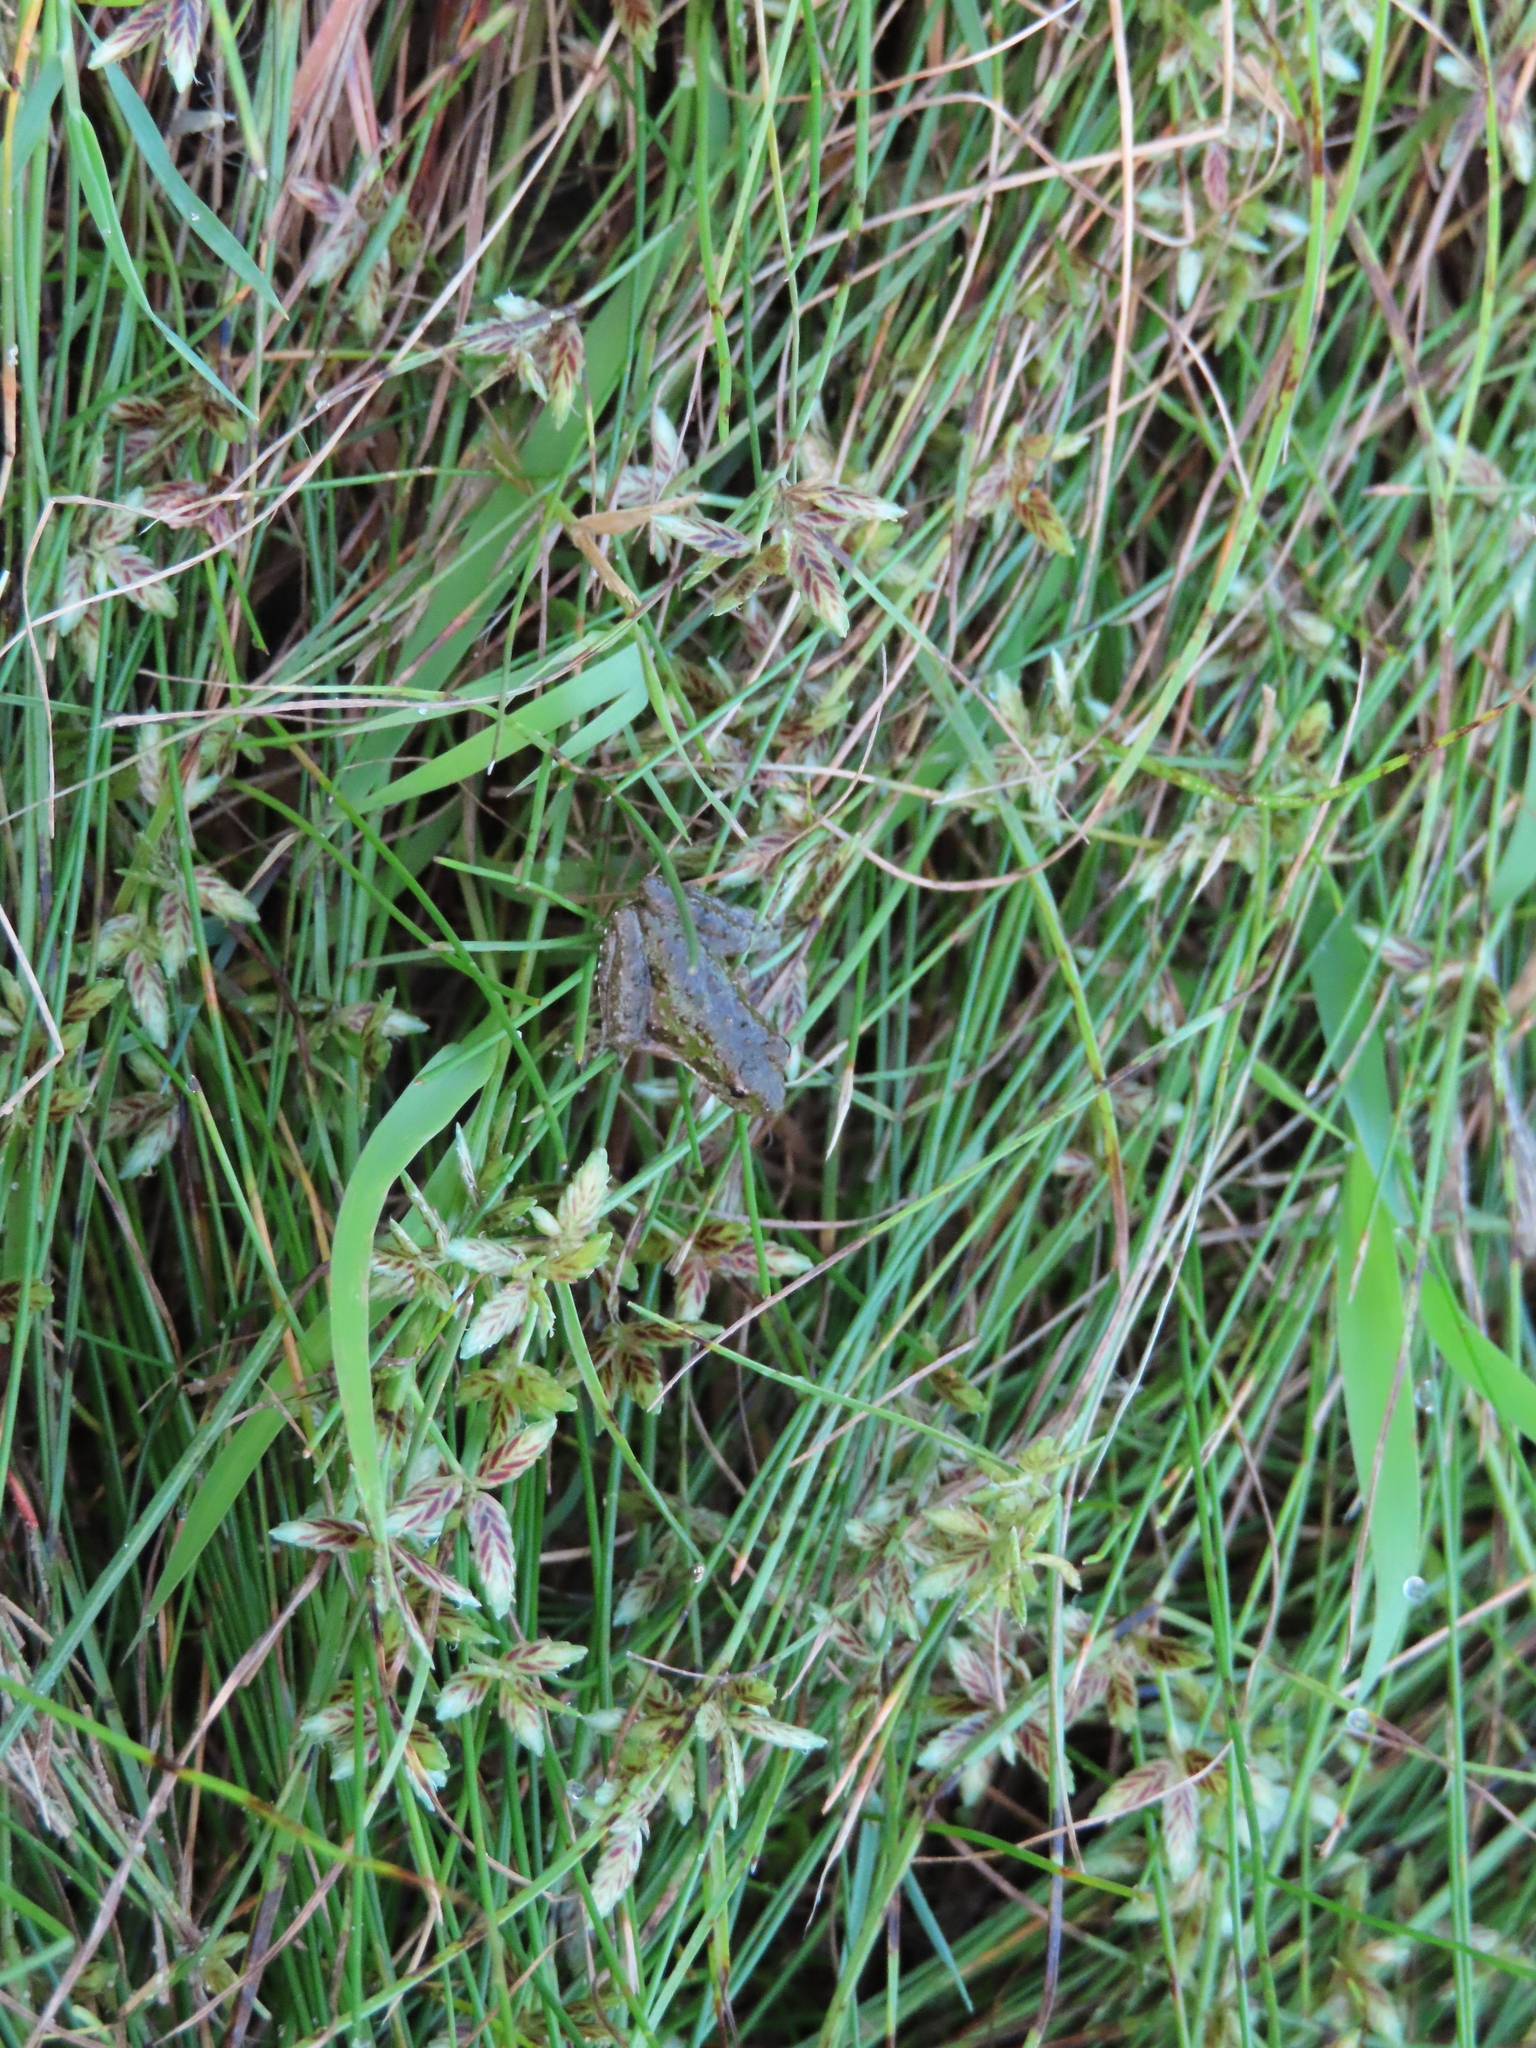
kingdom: Animalia
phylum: Chordata
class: Amphibia
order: Anura
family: Hylidae
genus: Acris
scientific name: Acris blanchardi
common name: Blanchard's cricket frog
